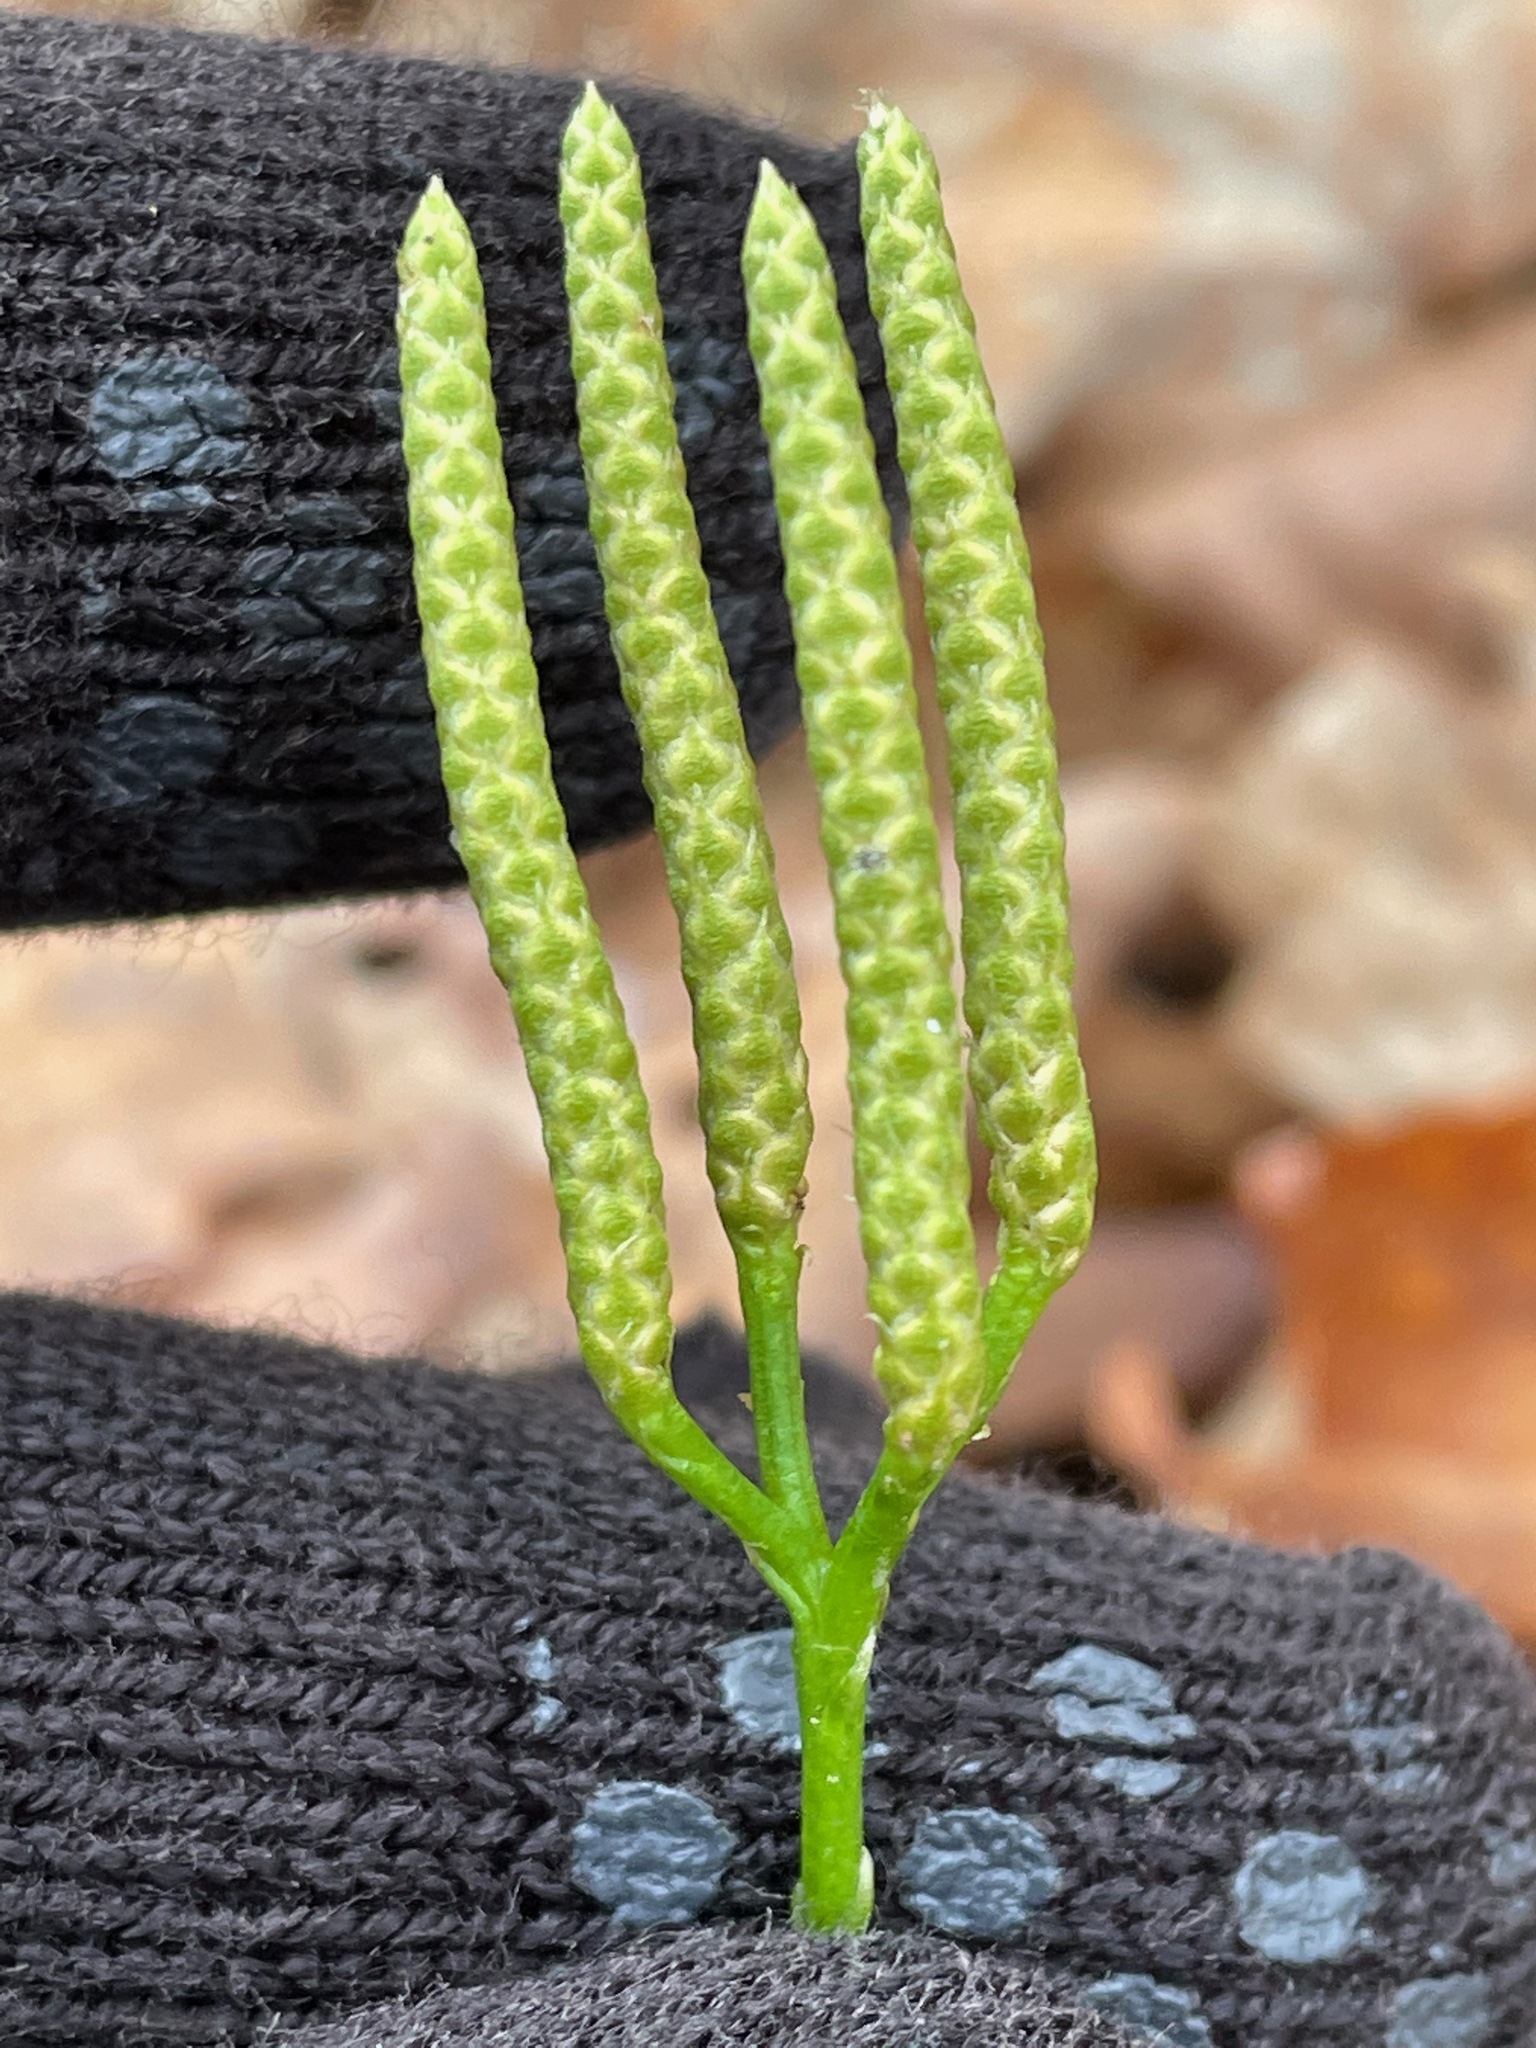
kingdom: Plantae
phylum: Tracheophyta
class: Lycopodiopsida
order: Lycopodiales
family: Lycopodiaceae
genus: Diphasiastrum
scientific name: Diphasiastrum digitatum
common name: Southern running-pine
